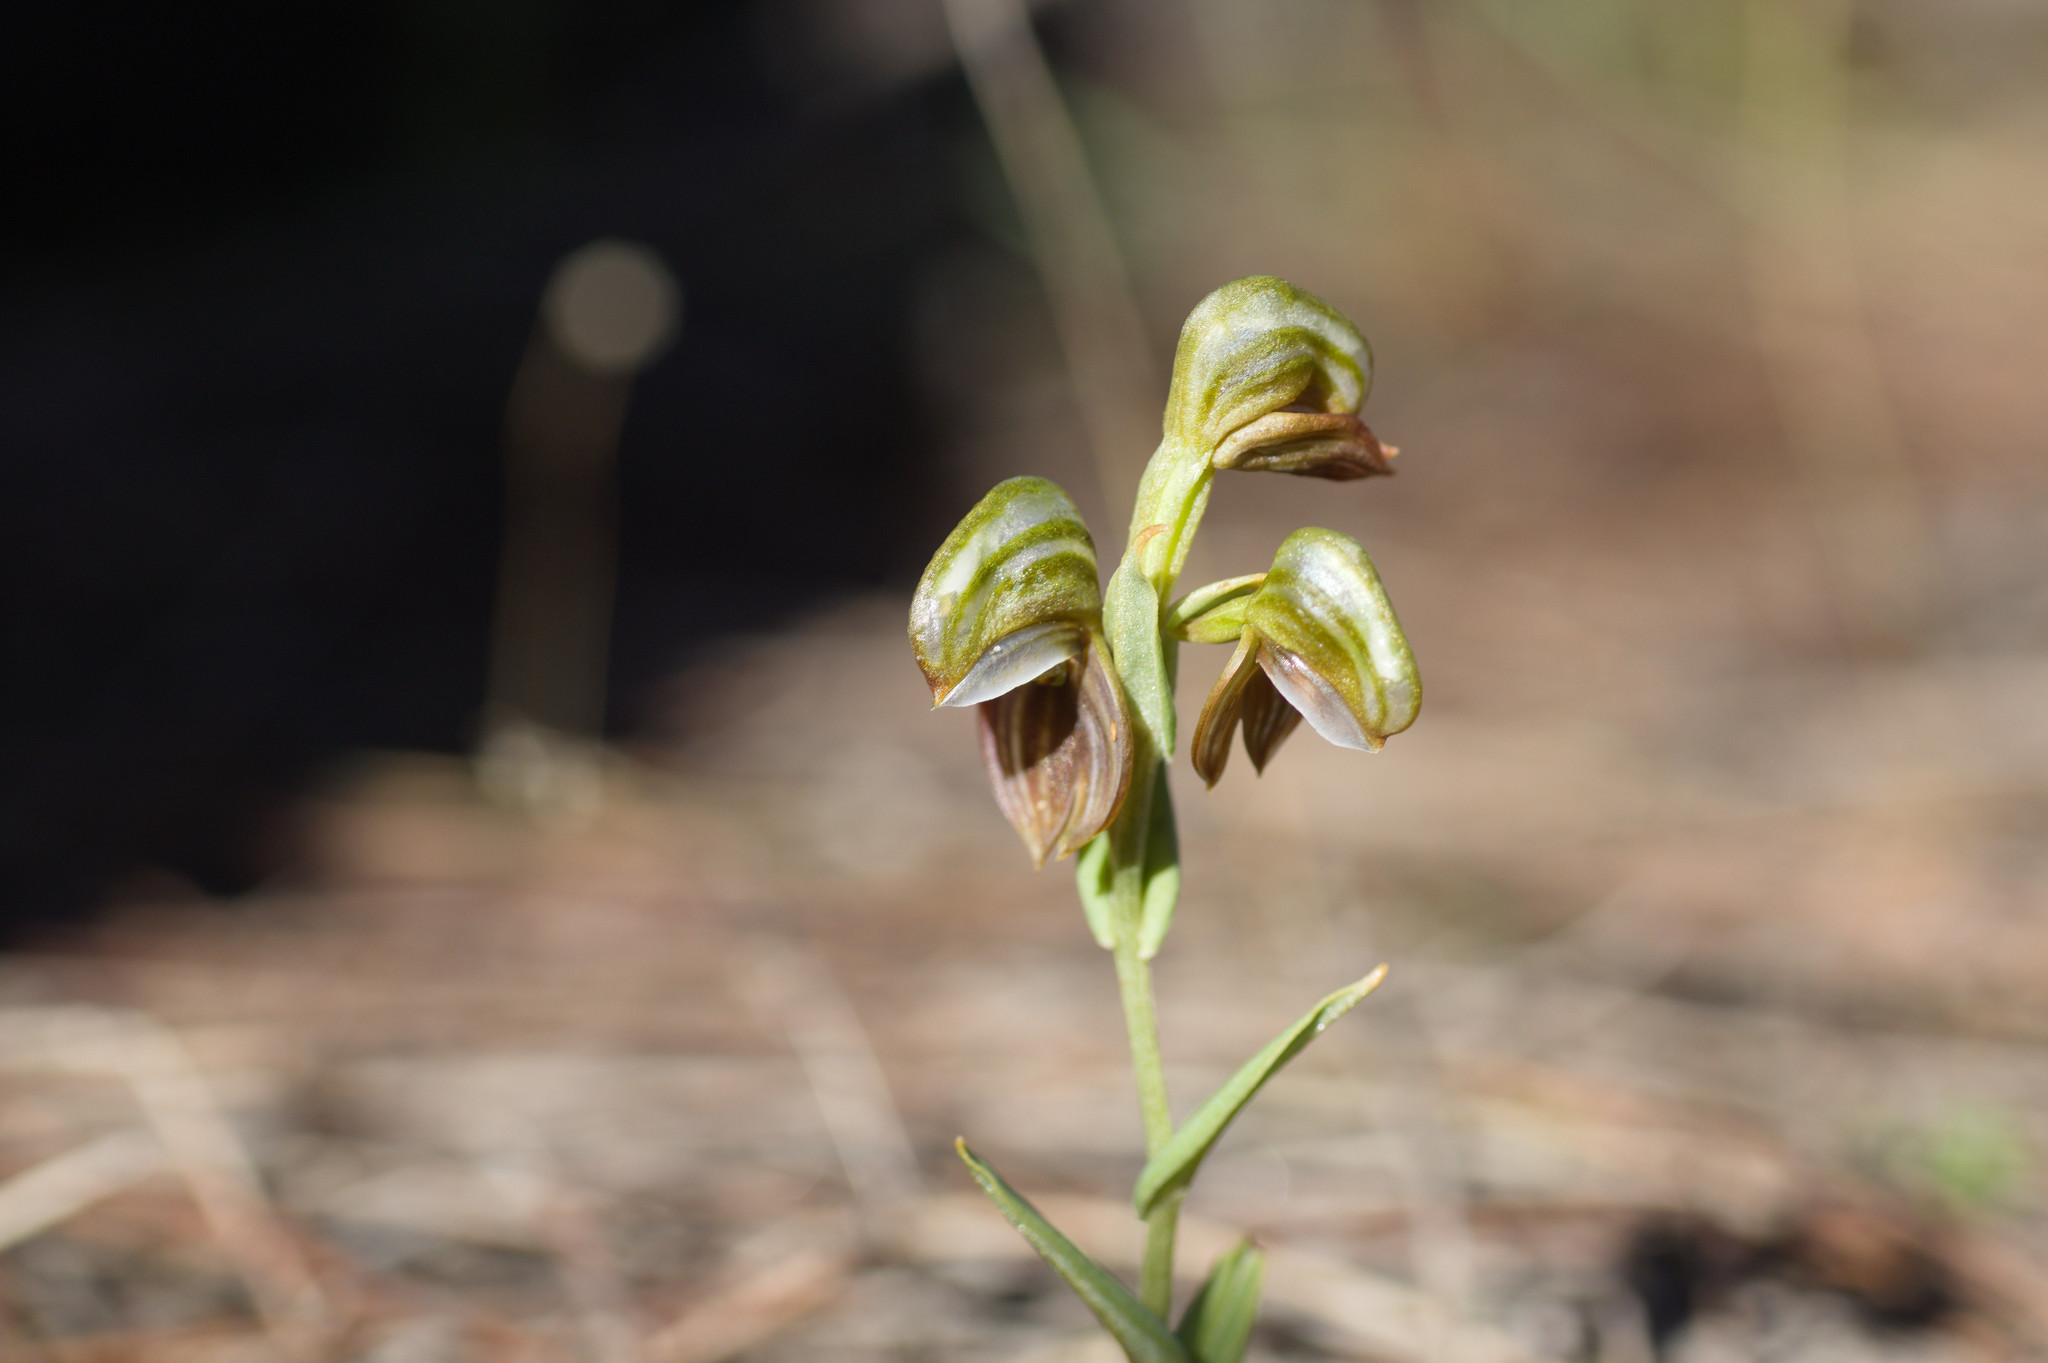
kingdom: Plantae
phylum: Tracheophyta
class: Liliopsida
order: Asparagales
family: Orchidaceae
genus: Pterostylis
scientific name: Pterostylis sanguinea
